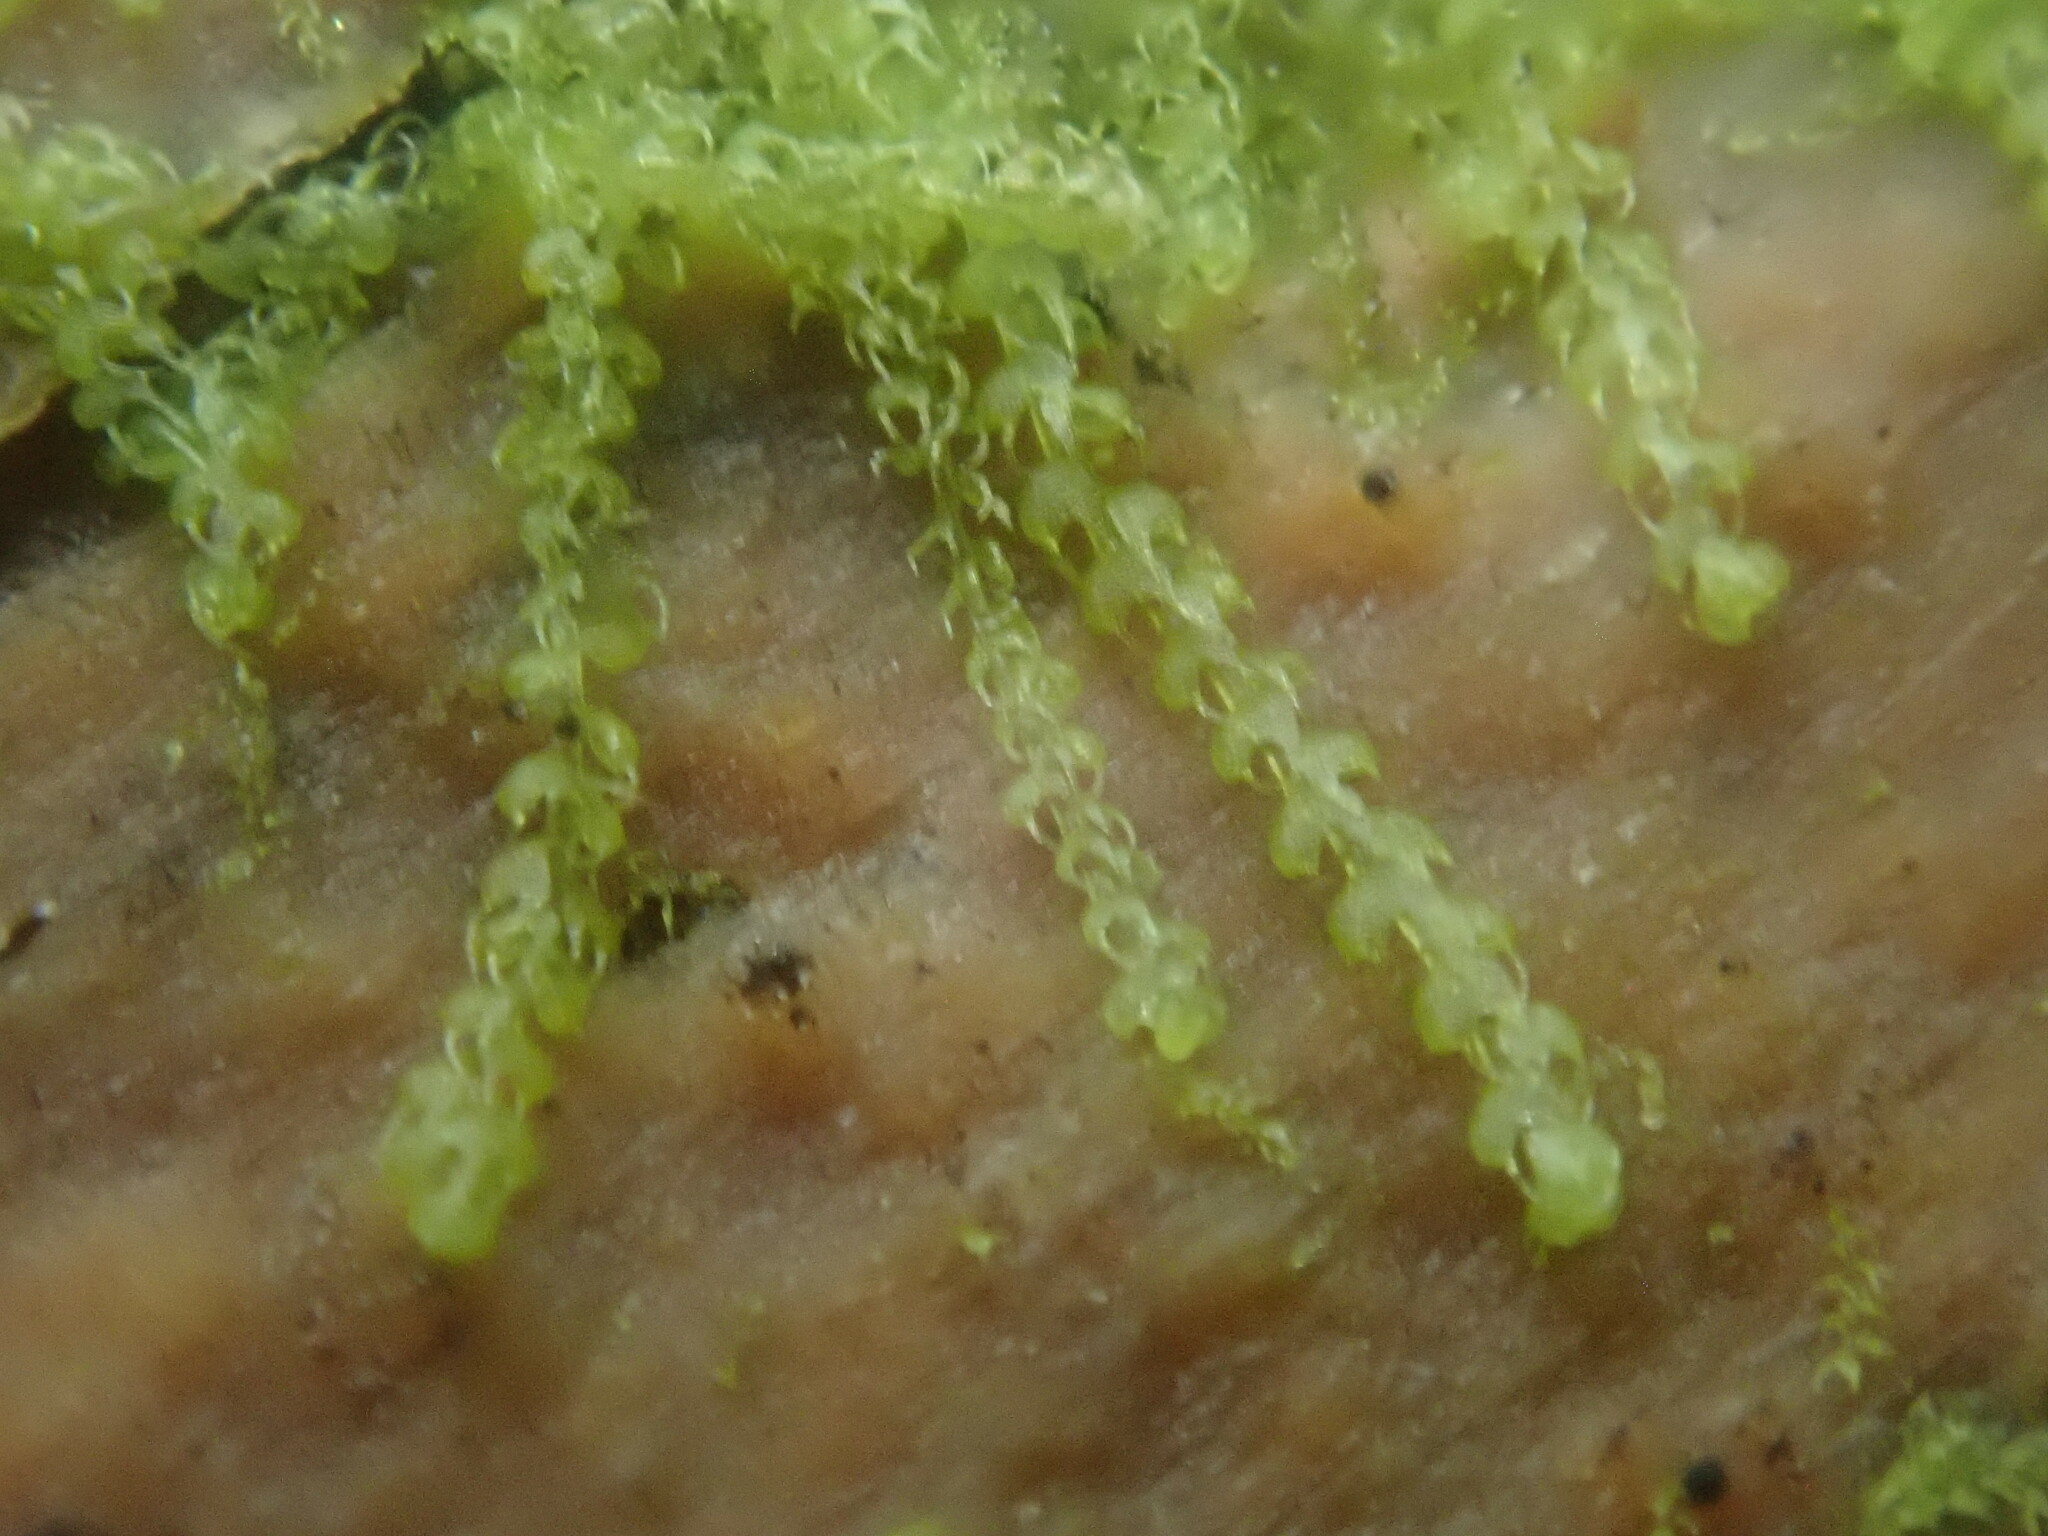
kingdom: Plantae
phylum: Marchantiophyta
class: Jungermanniopsida
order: Jungermanniales
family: Cephaloziaceae
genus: Nowellia
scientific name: Nowellia curvifolia
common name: Wood rustwort
